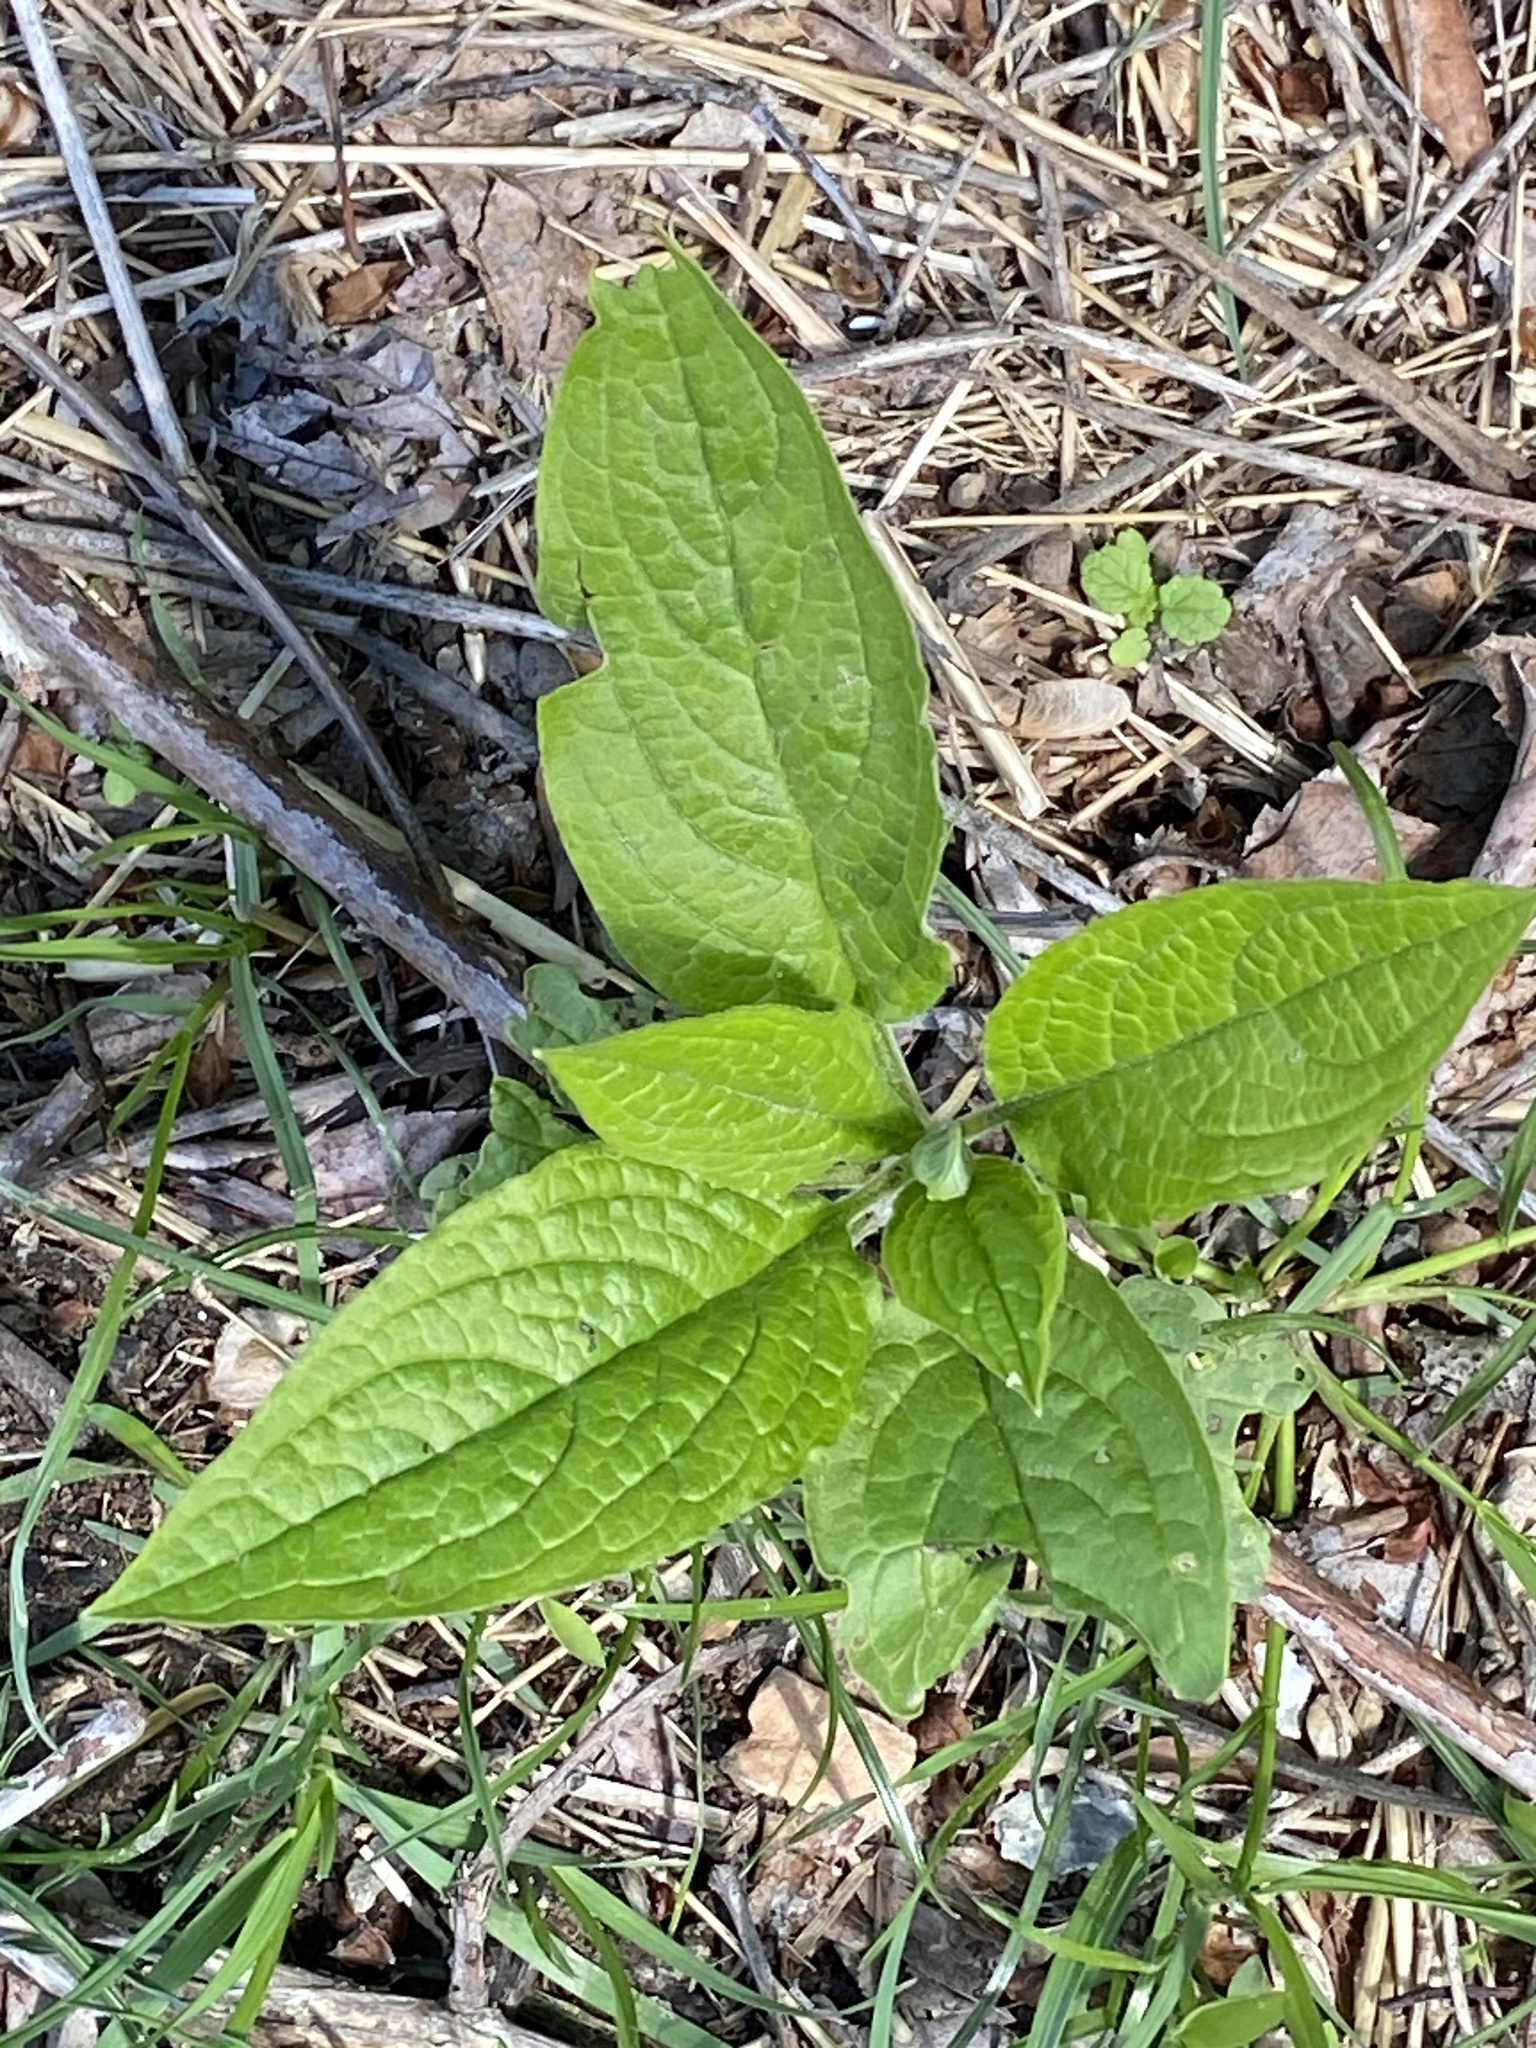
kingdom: Plantae
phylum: Tracheophyta
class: Magnoliopsida
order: Boraginales
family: Boraginaceae
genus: Hackelia
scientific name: Hackelia virginiana
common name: Beggar's-lice
